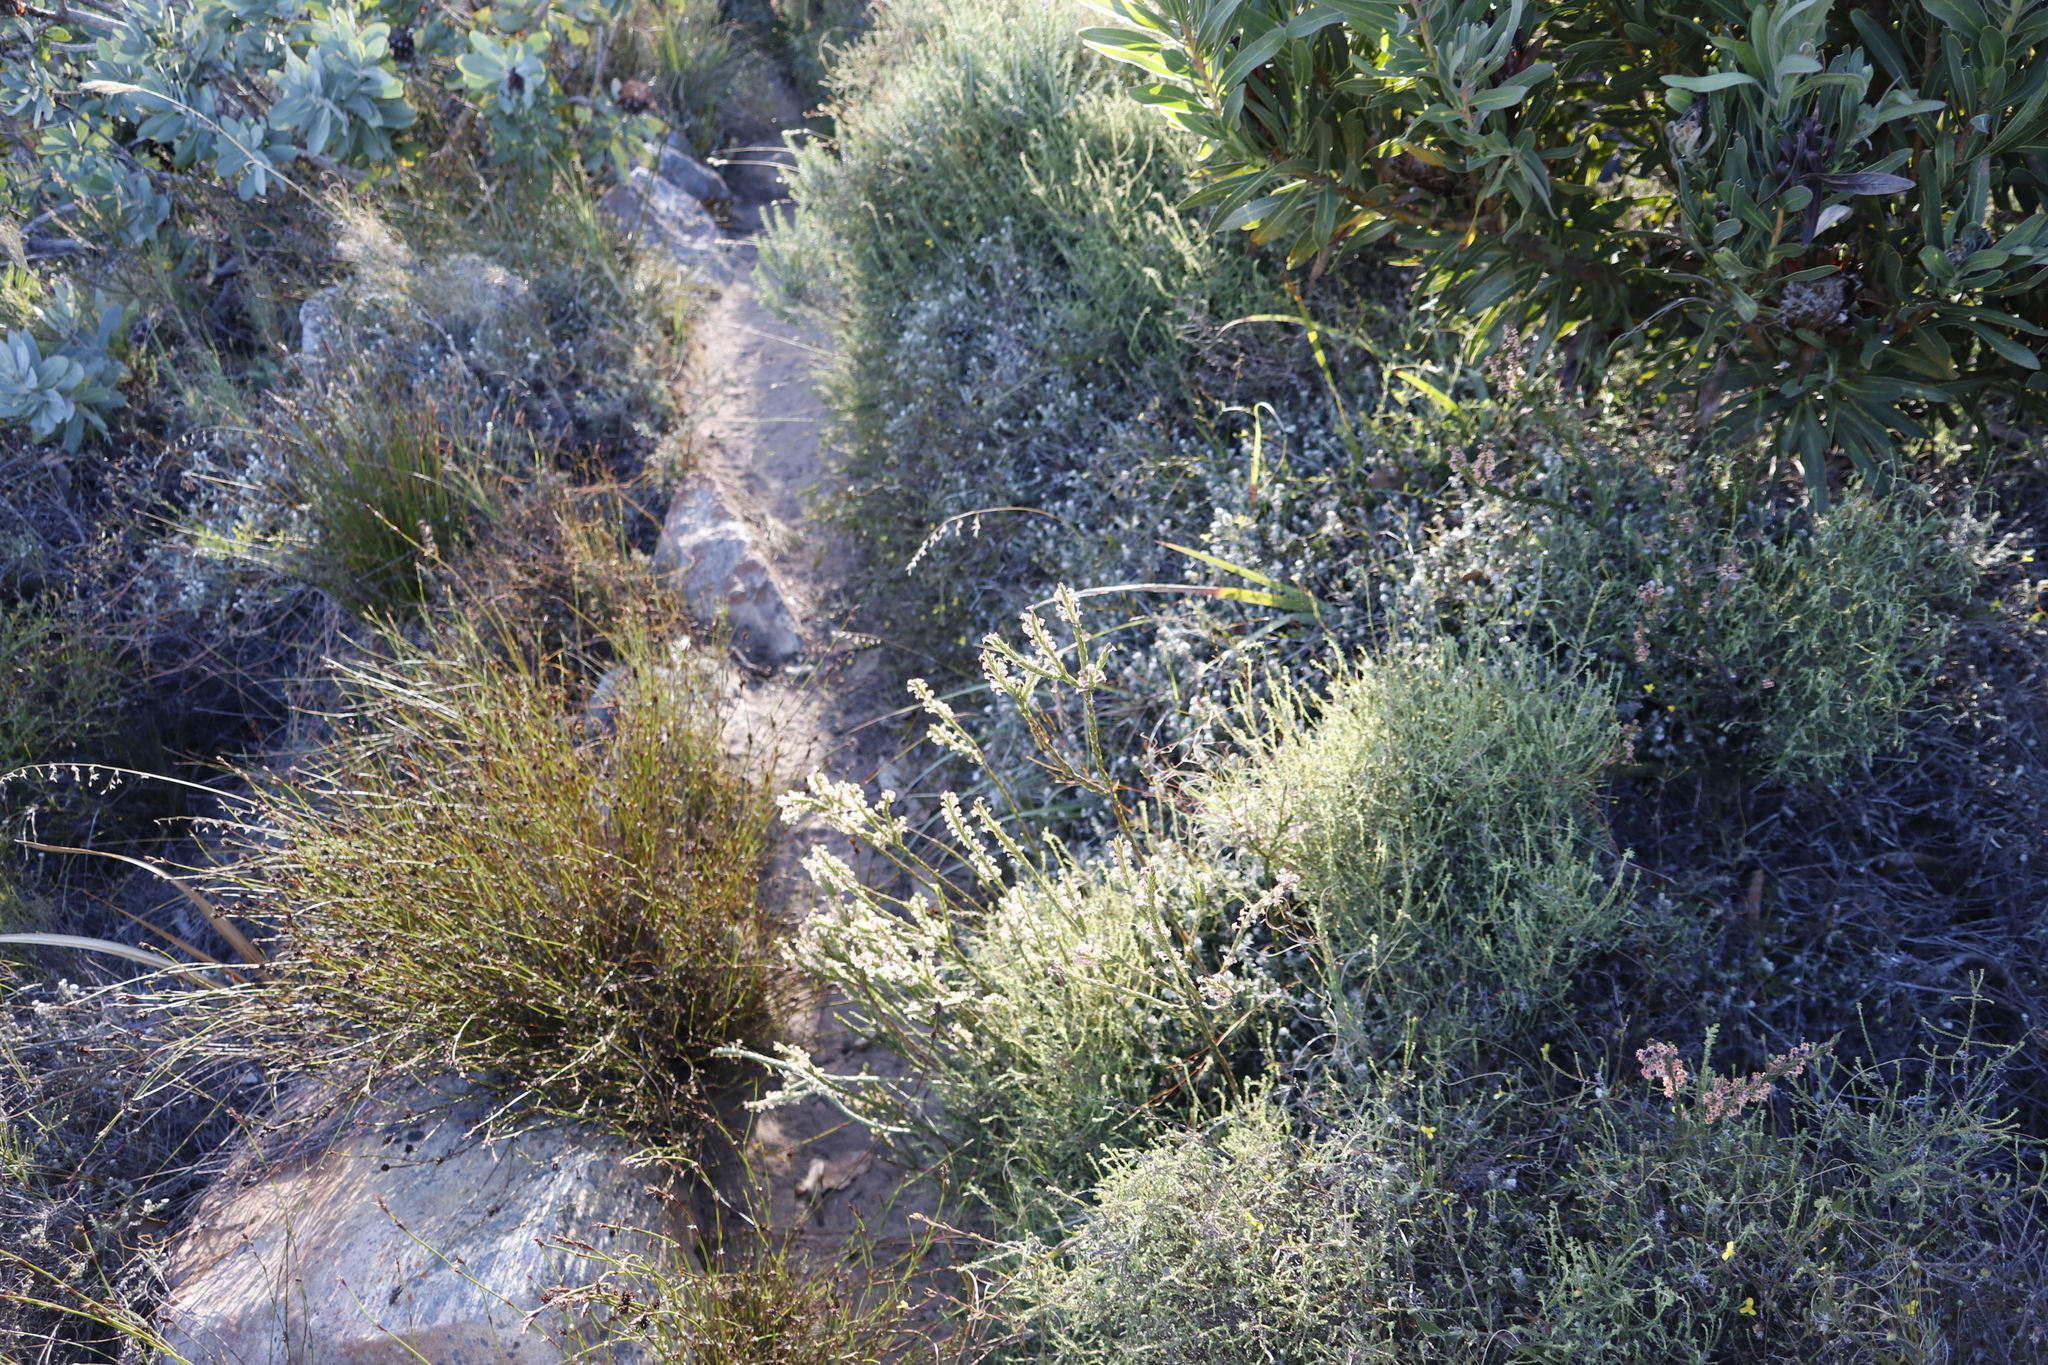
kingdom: Plantae
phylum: Tracheophyta
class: Magnoliopsida
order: Malvales
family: Thymelaeaceae
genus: Struthiola
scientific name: Struthiola ciliata
